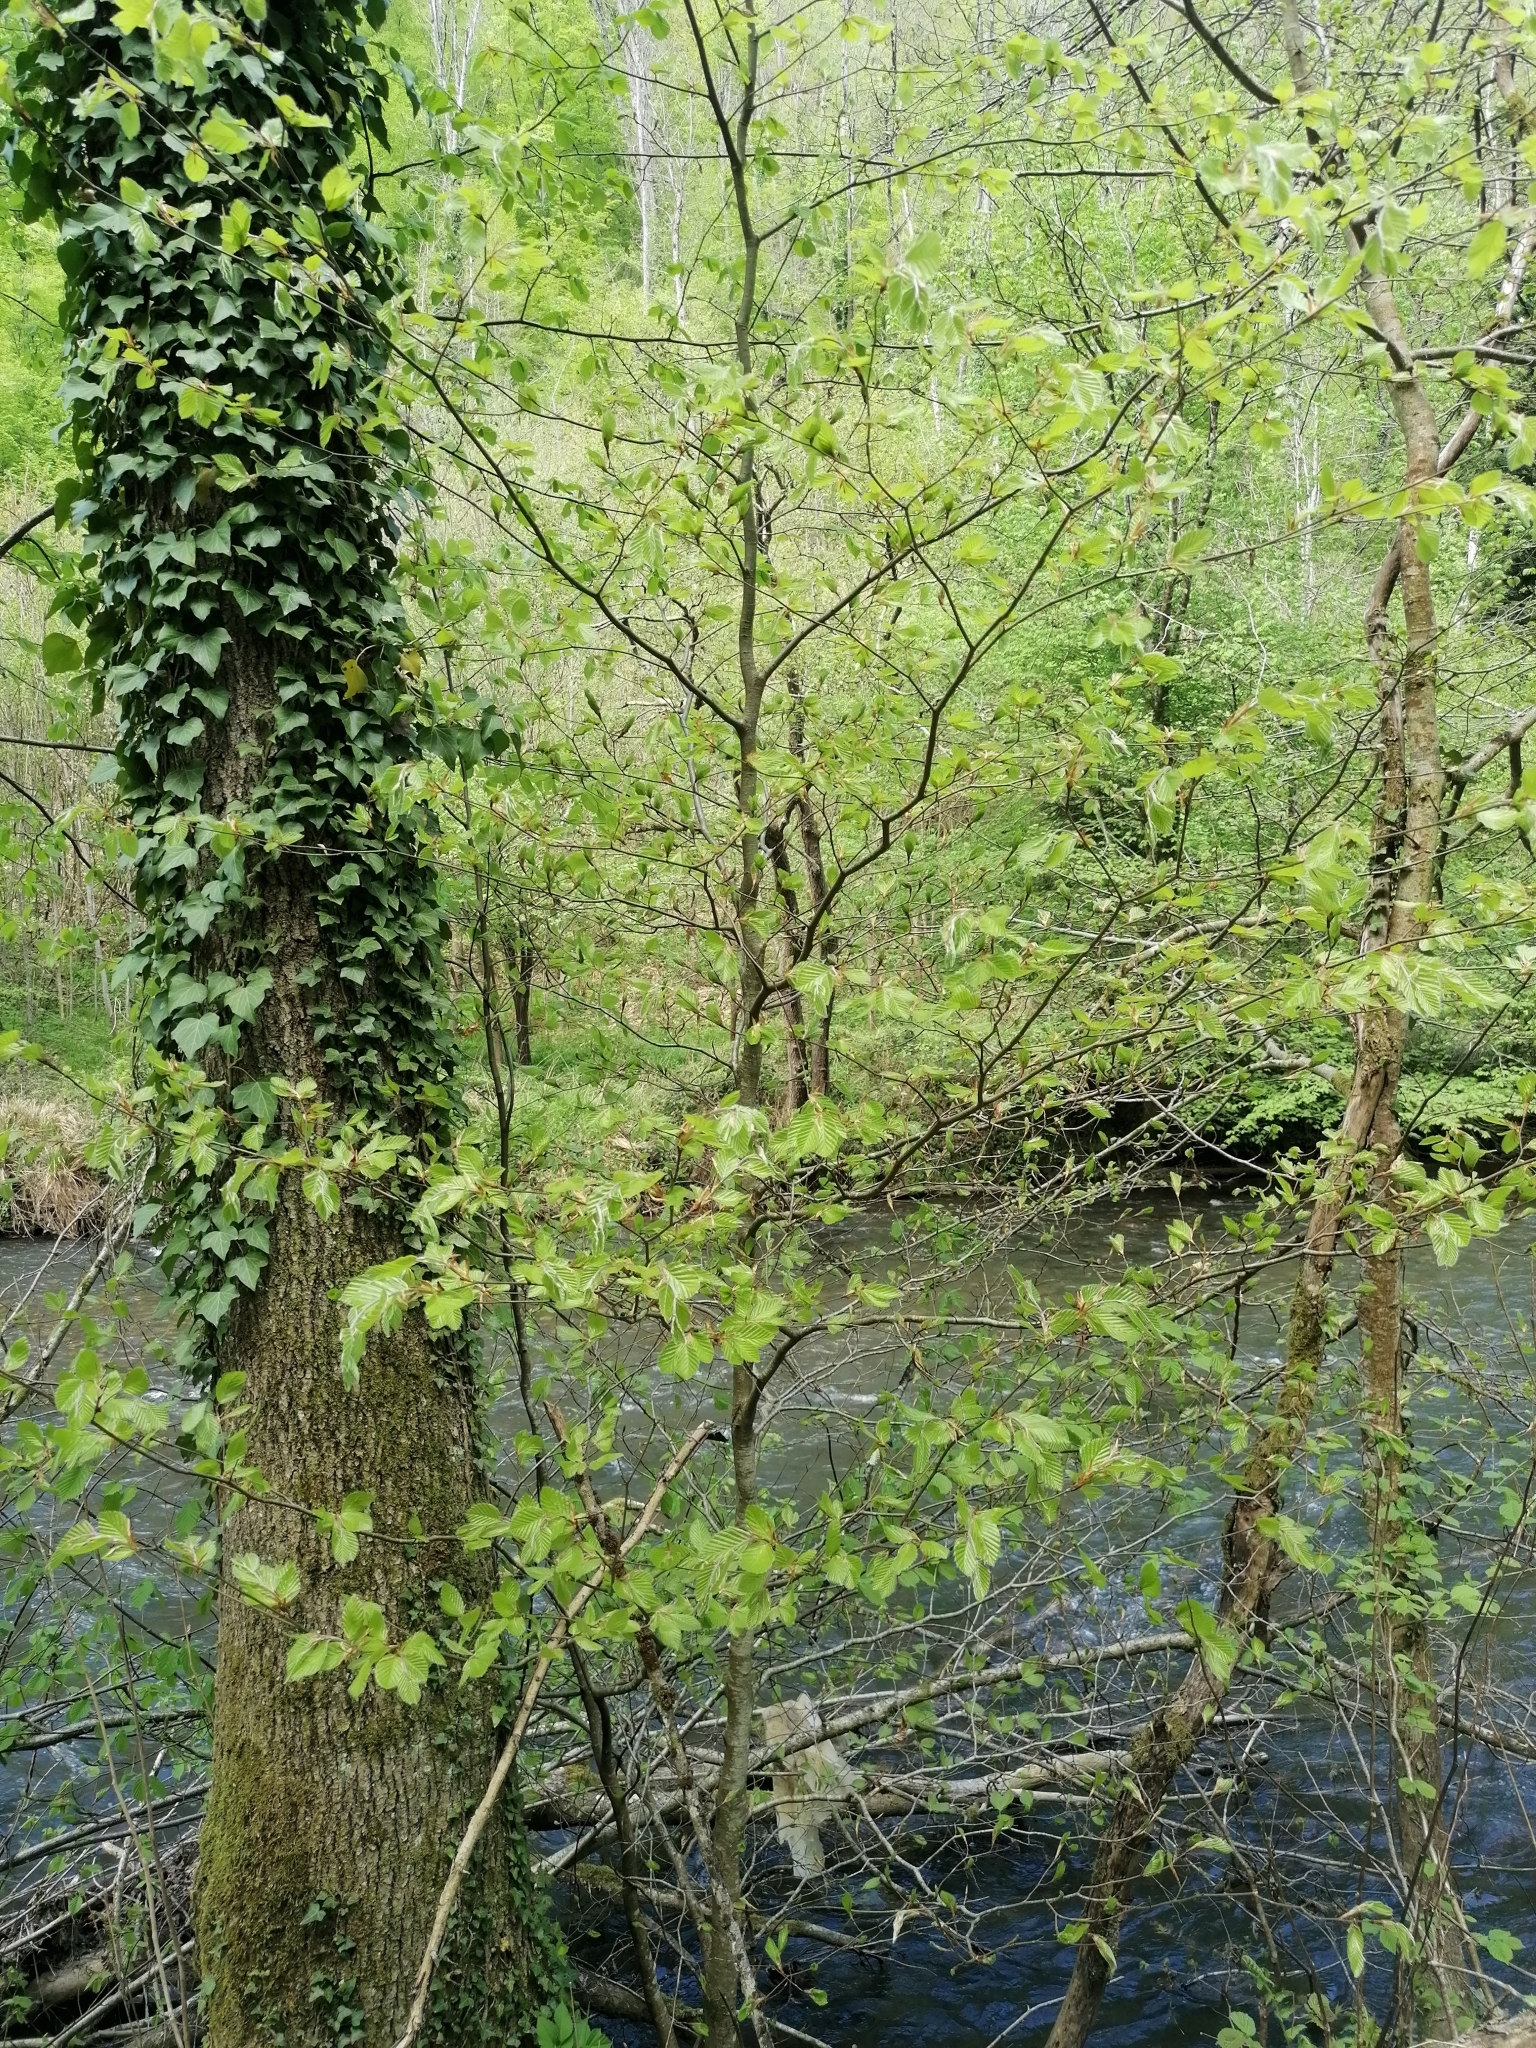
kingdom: Plantae
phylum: Tracheophyta
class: Magnoliopsida
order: Fagales
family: Fagaceae
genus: Fagus
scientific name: Fagus sylvatica
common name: Beech
